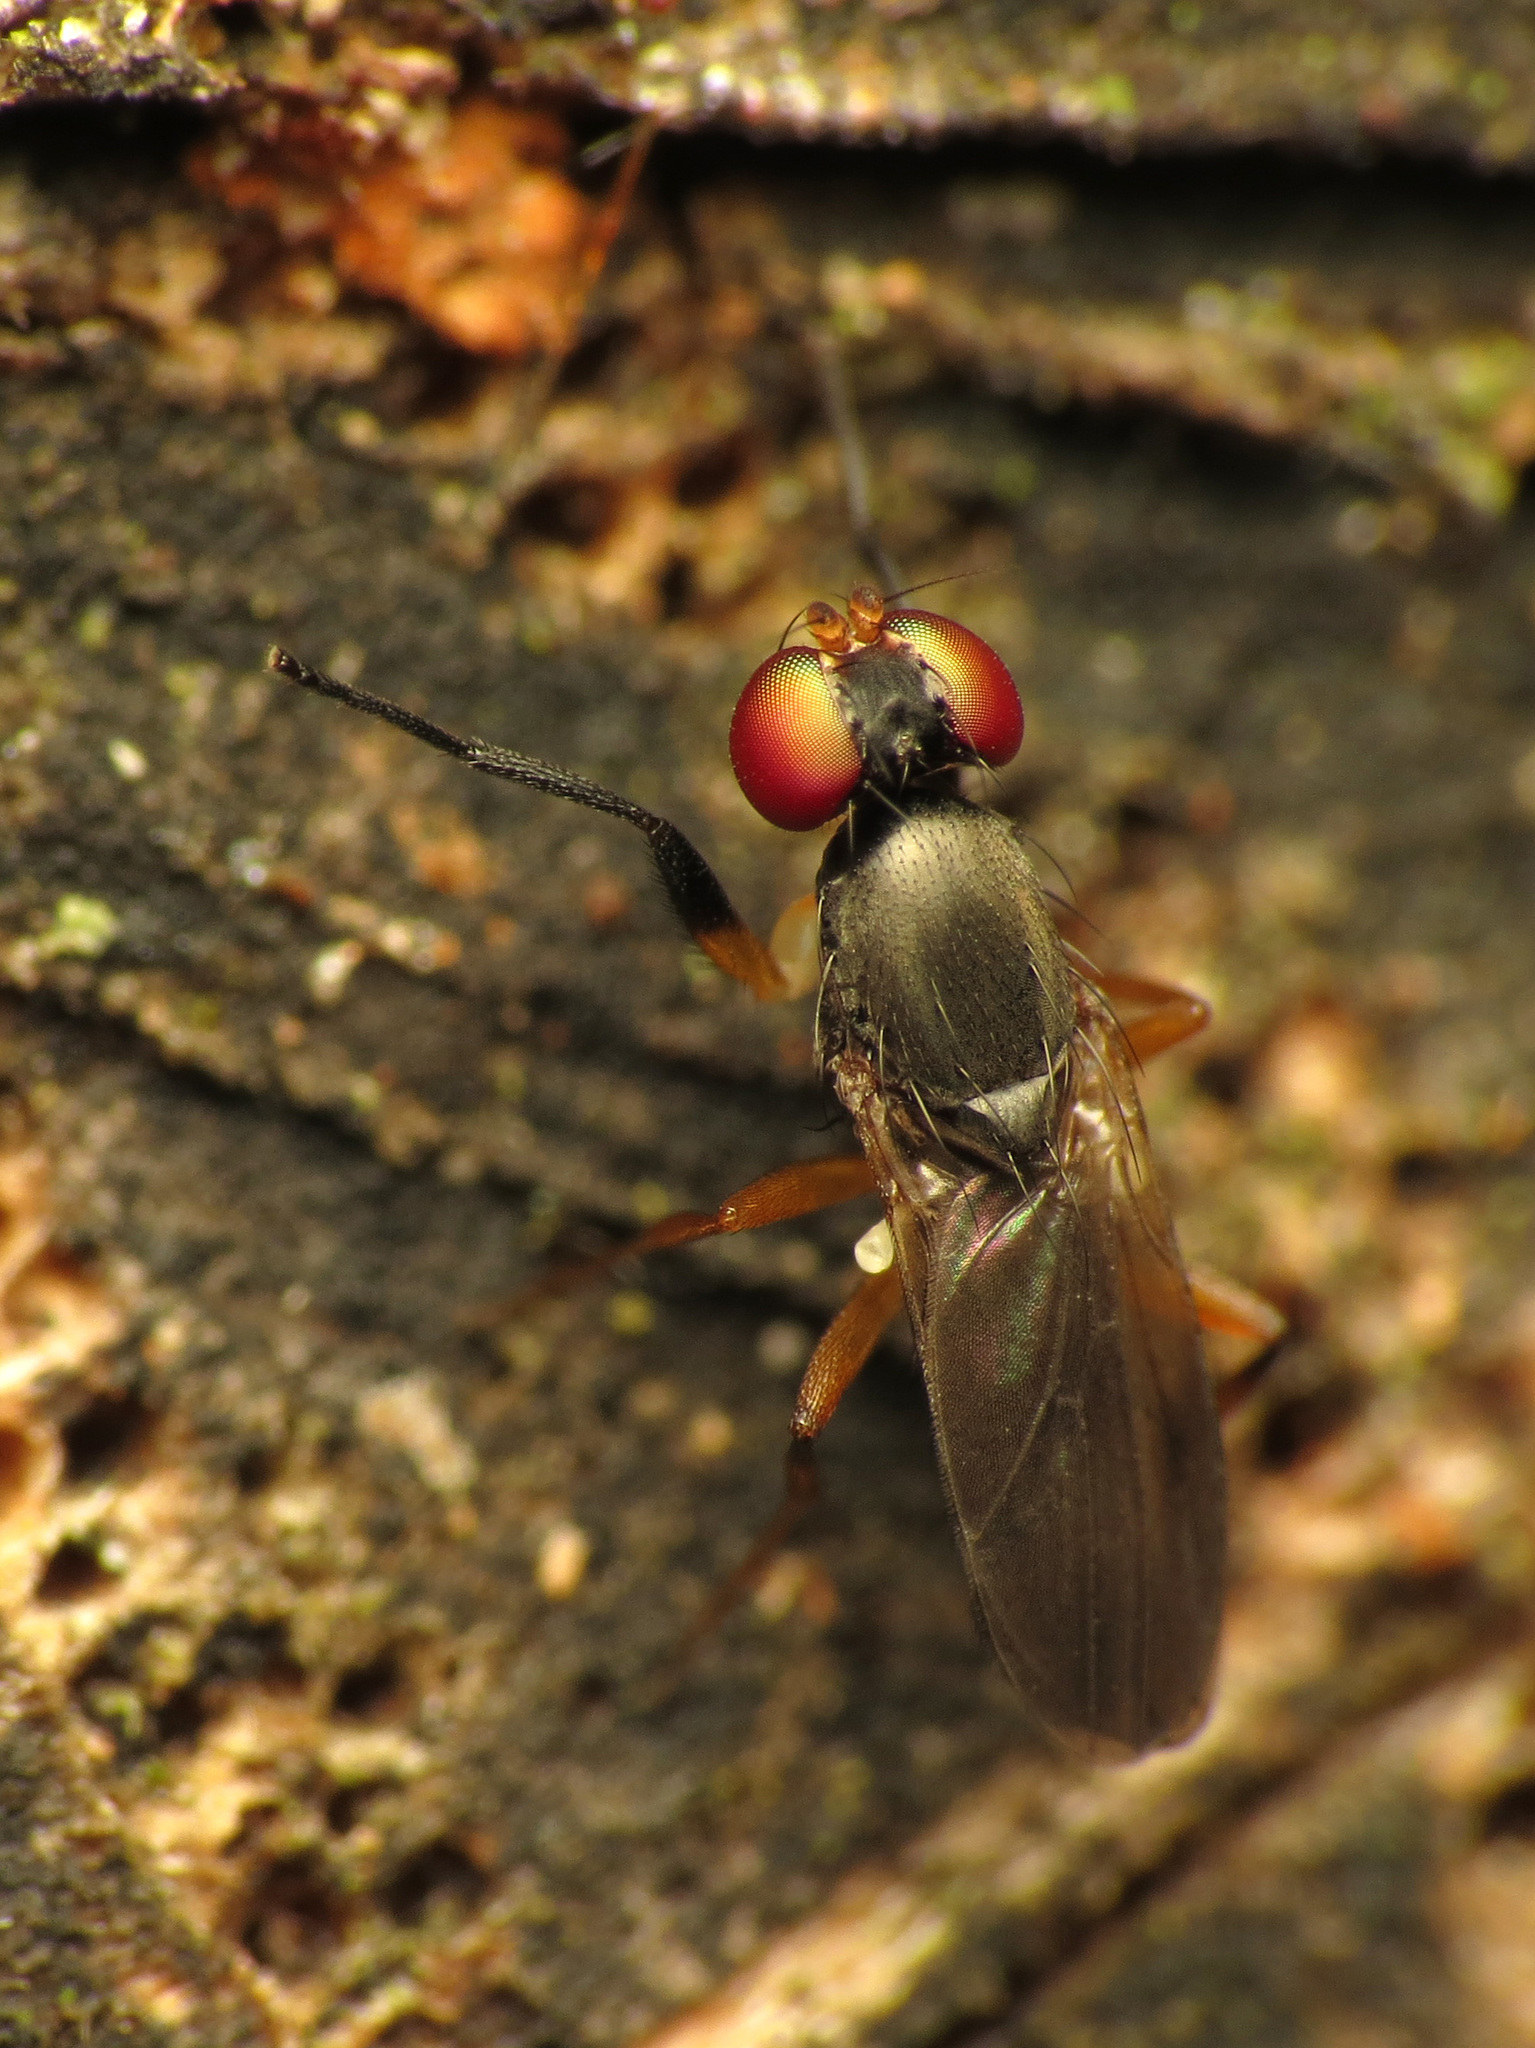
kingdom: Animalia
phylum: Arthropoda
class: Insecta
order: Diptera
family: Clusiidae
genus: Heteromeringia
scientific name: Heteromeringia nitida
